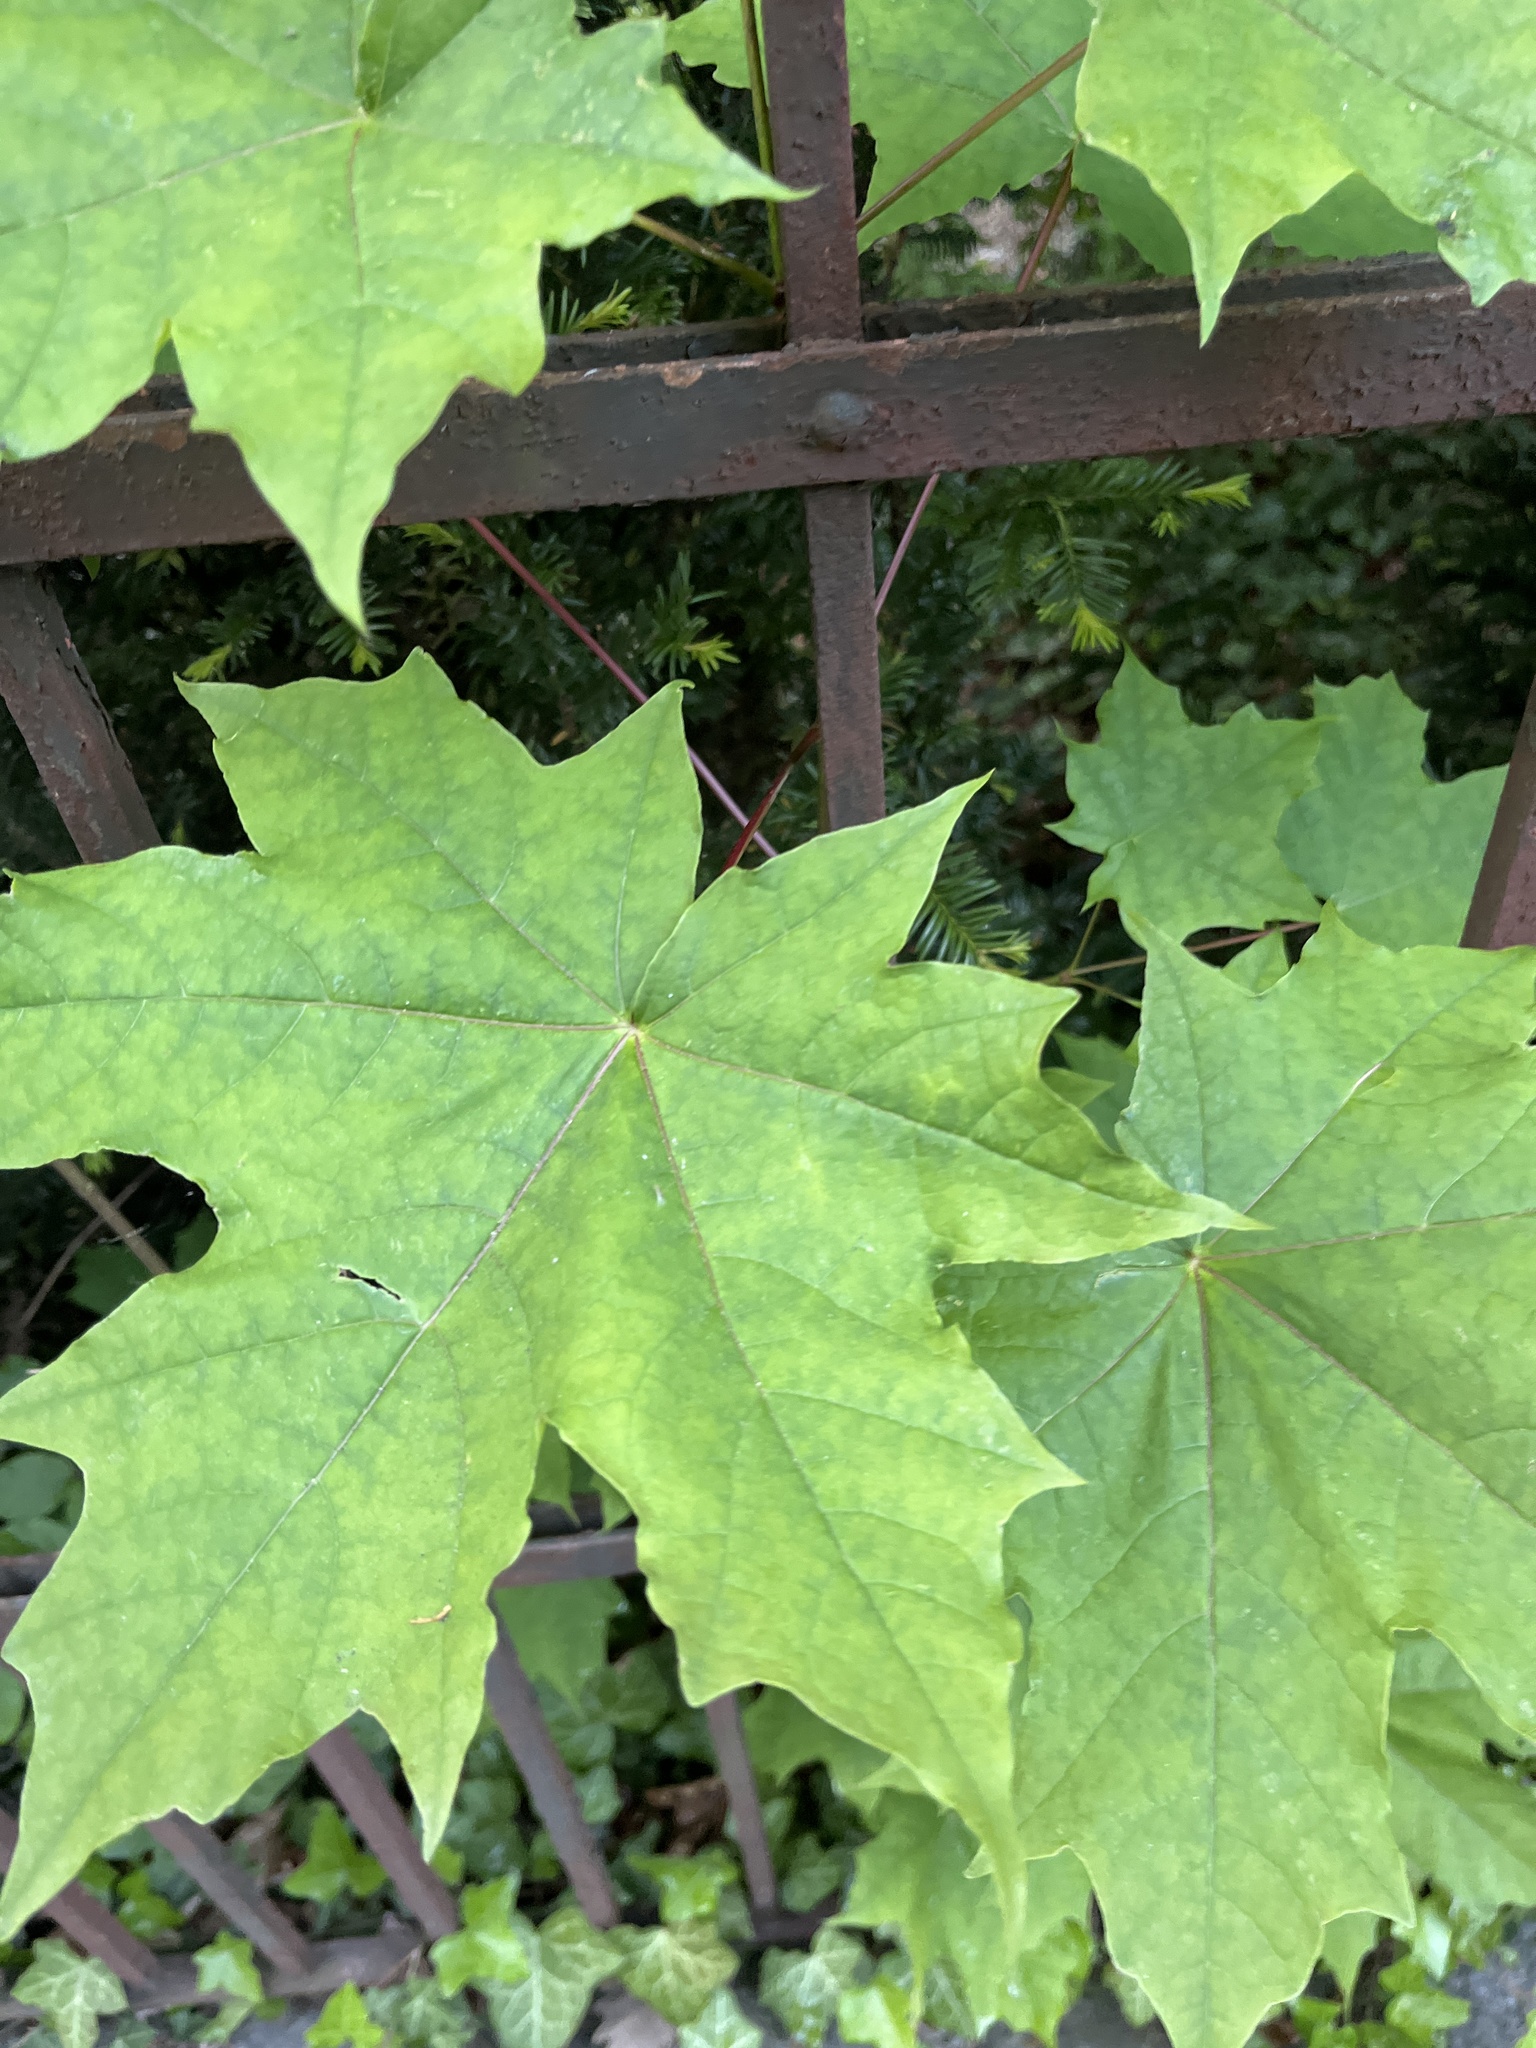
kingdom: Plantae
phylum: Tracheophyta
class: Magnoliopsida
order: Sapindales
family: Sapindaceae
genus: Acer
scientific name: Acer platanoides
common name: Norway maple
